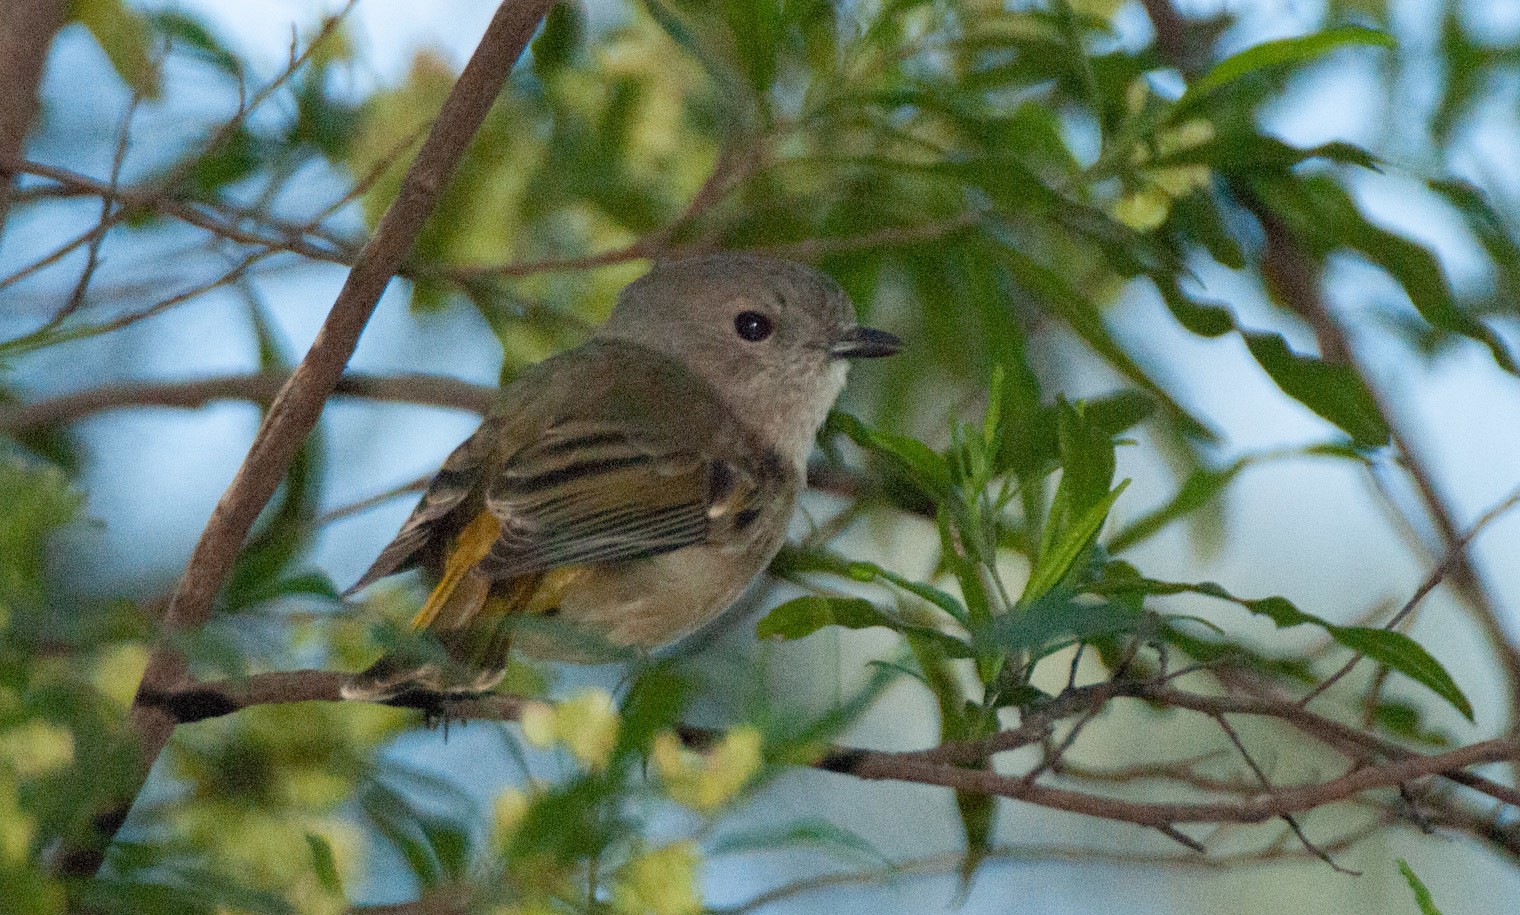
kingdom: Animalia
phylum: Chordata
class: Aves
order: Passeriformes
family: Pachycephalidae
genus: Pachycephala
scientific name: Pachycephala pectoralis
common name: Australian golden whistler
